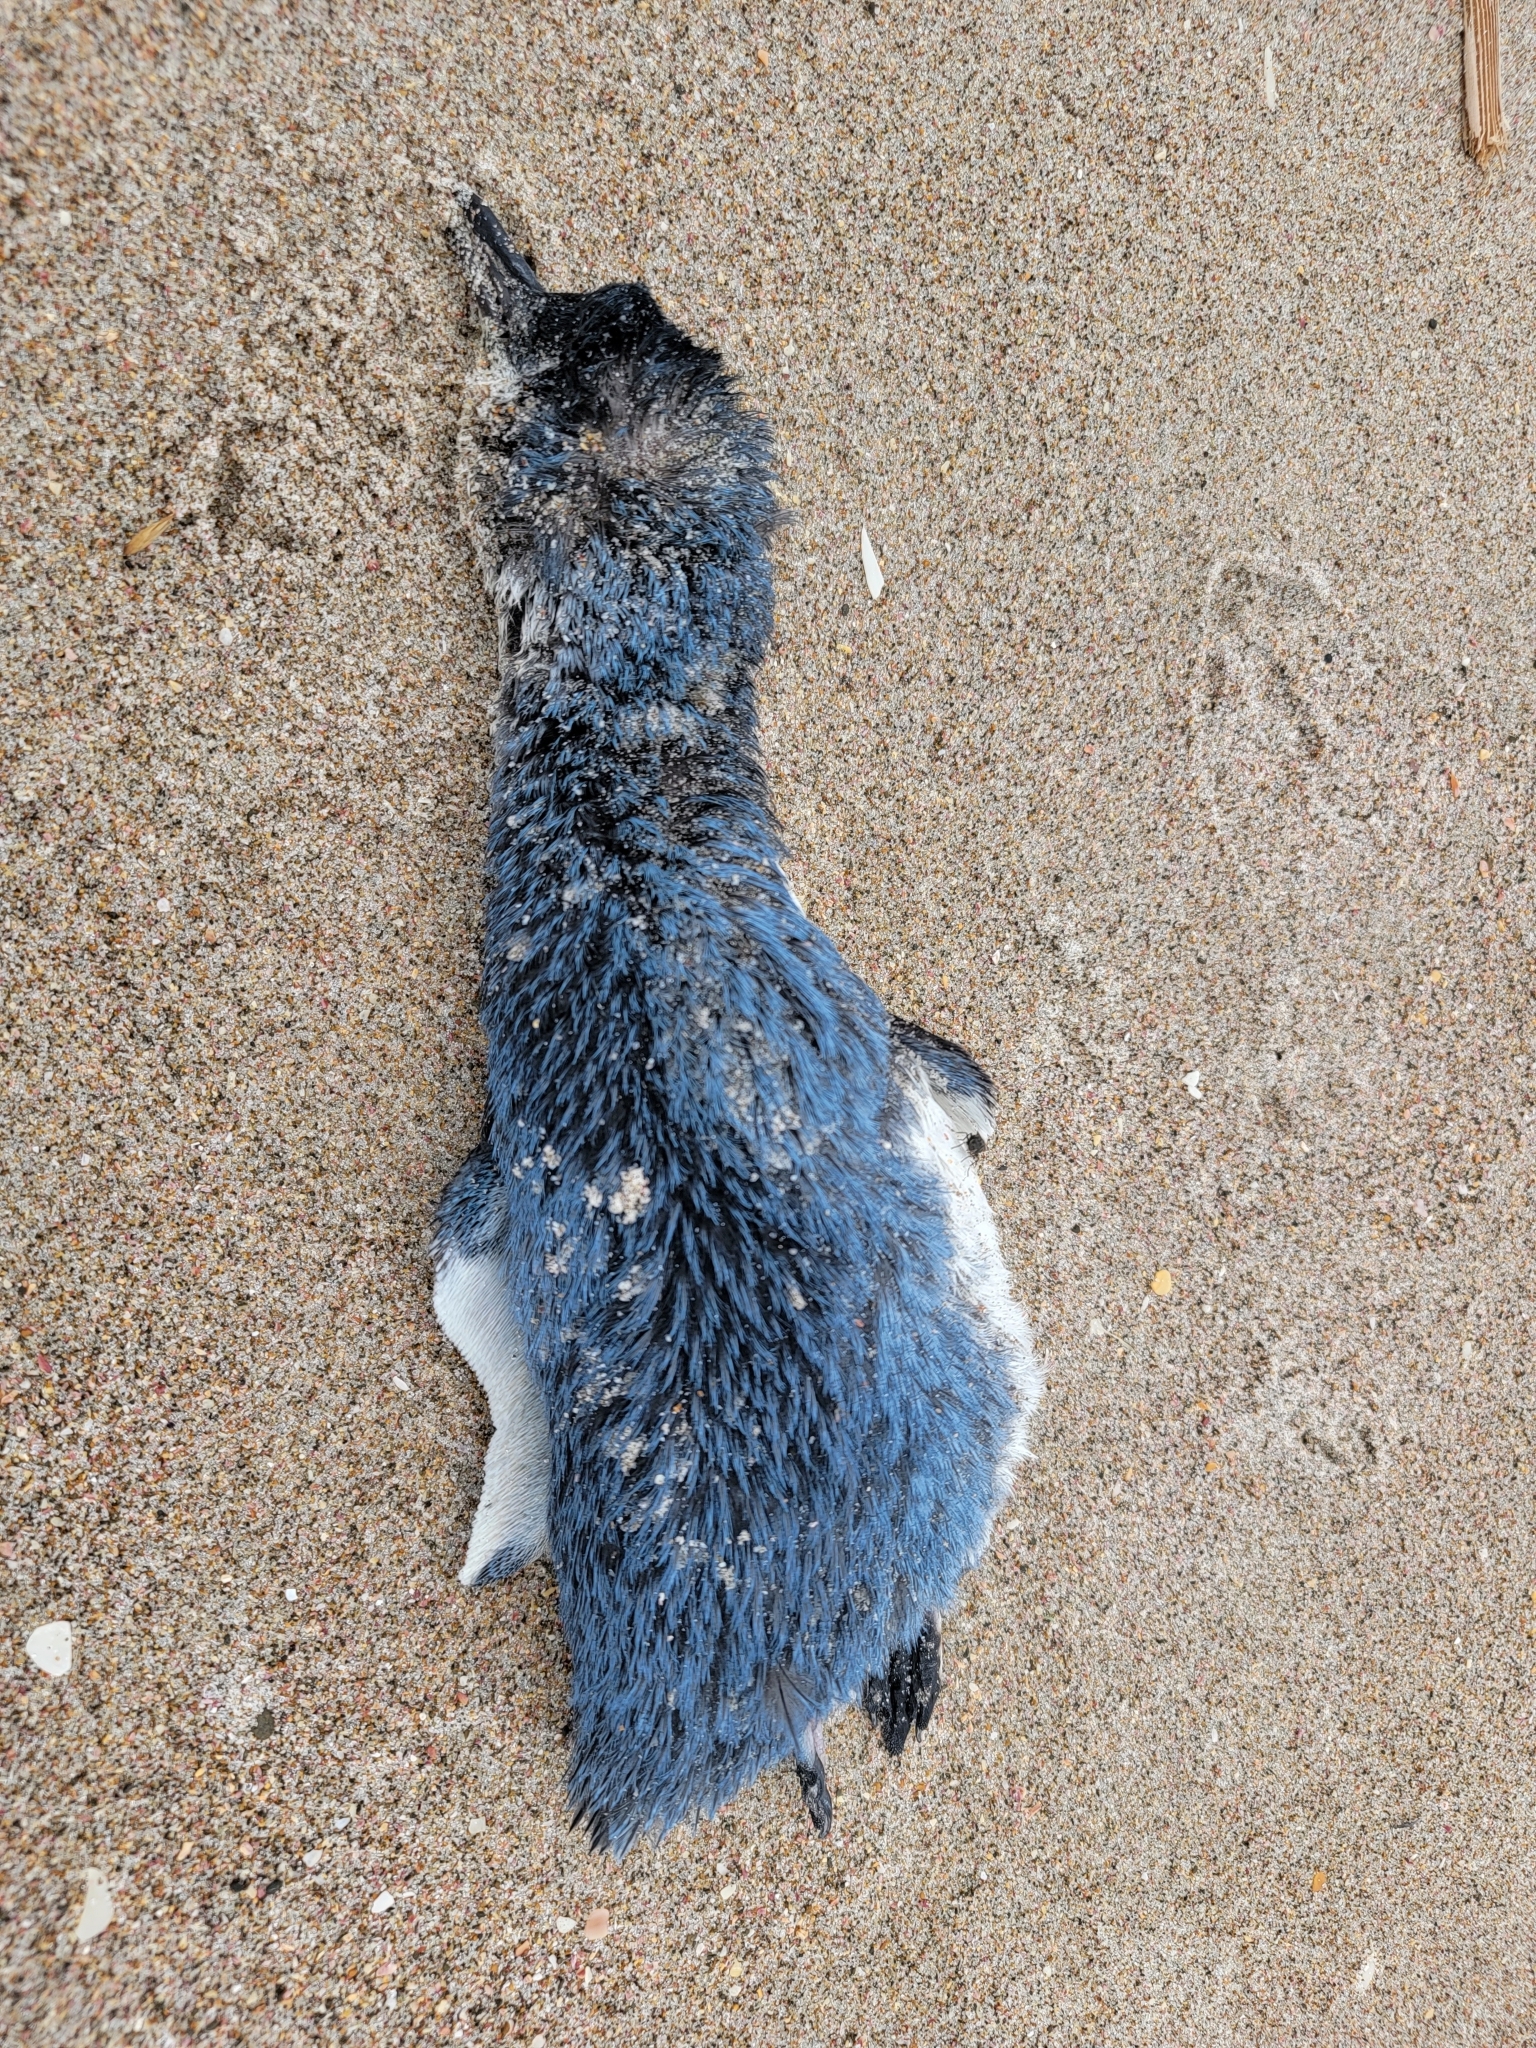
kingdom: Animalia
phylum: Chordata
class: Aves
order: Sphenisciformes
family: Spheniscidae
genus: Eudyptula
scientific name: Eudyptula minor
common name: Little penguin
